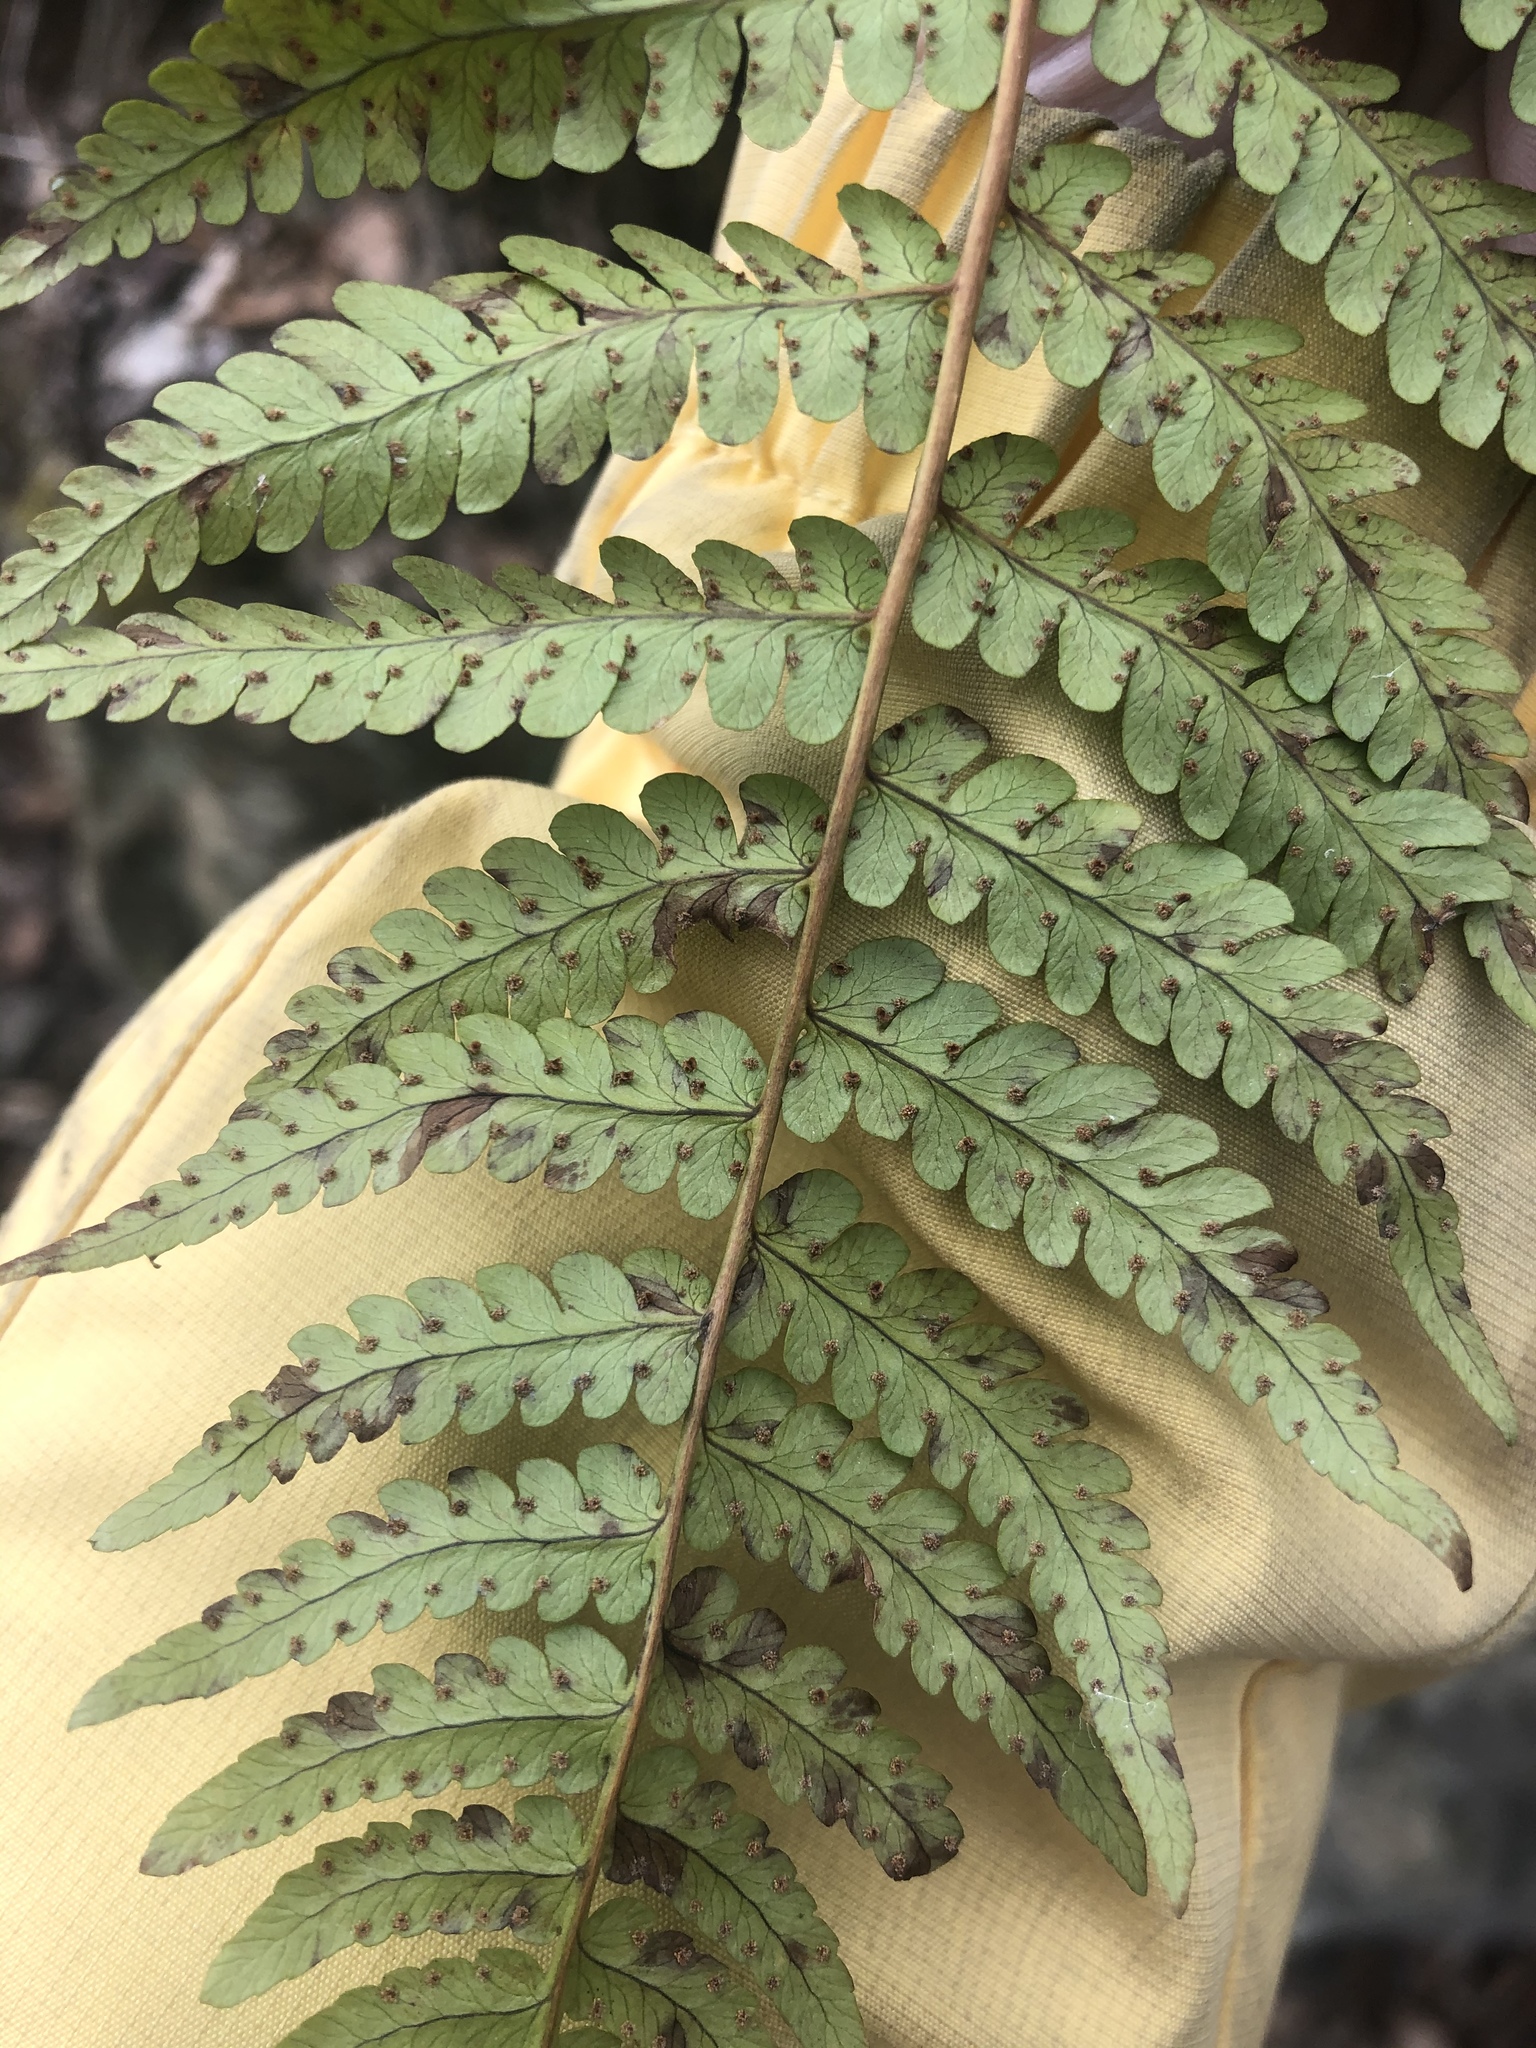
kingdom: Plantae
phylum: Tracheophyta
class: Polypodiopsida
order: Polypodiales
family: Dryopteridaceae
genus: Dryopteris
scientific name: Dryopteris marginalis
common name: Marginal wood fern
